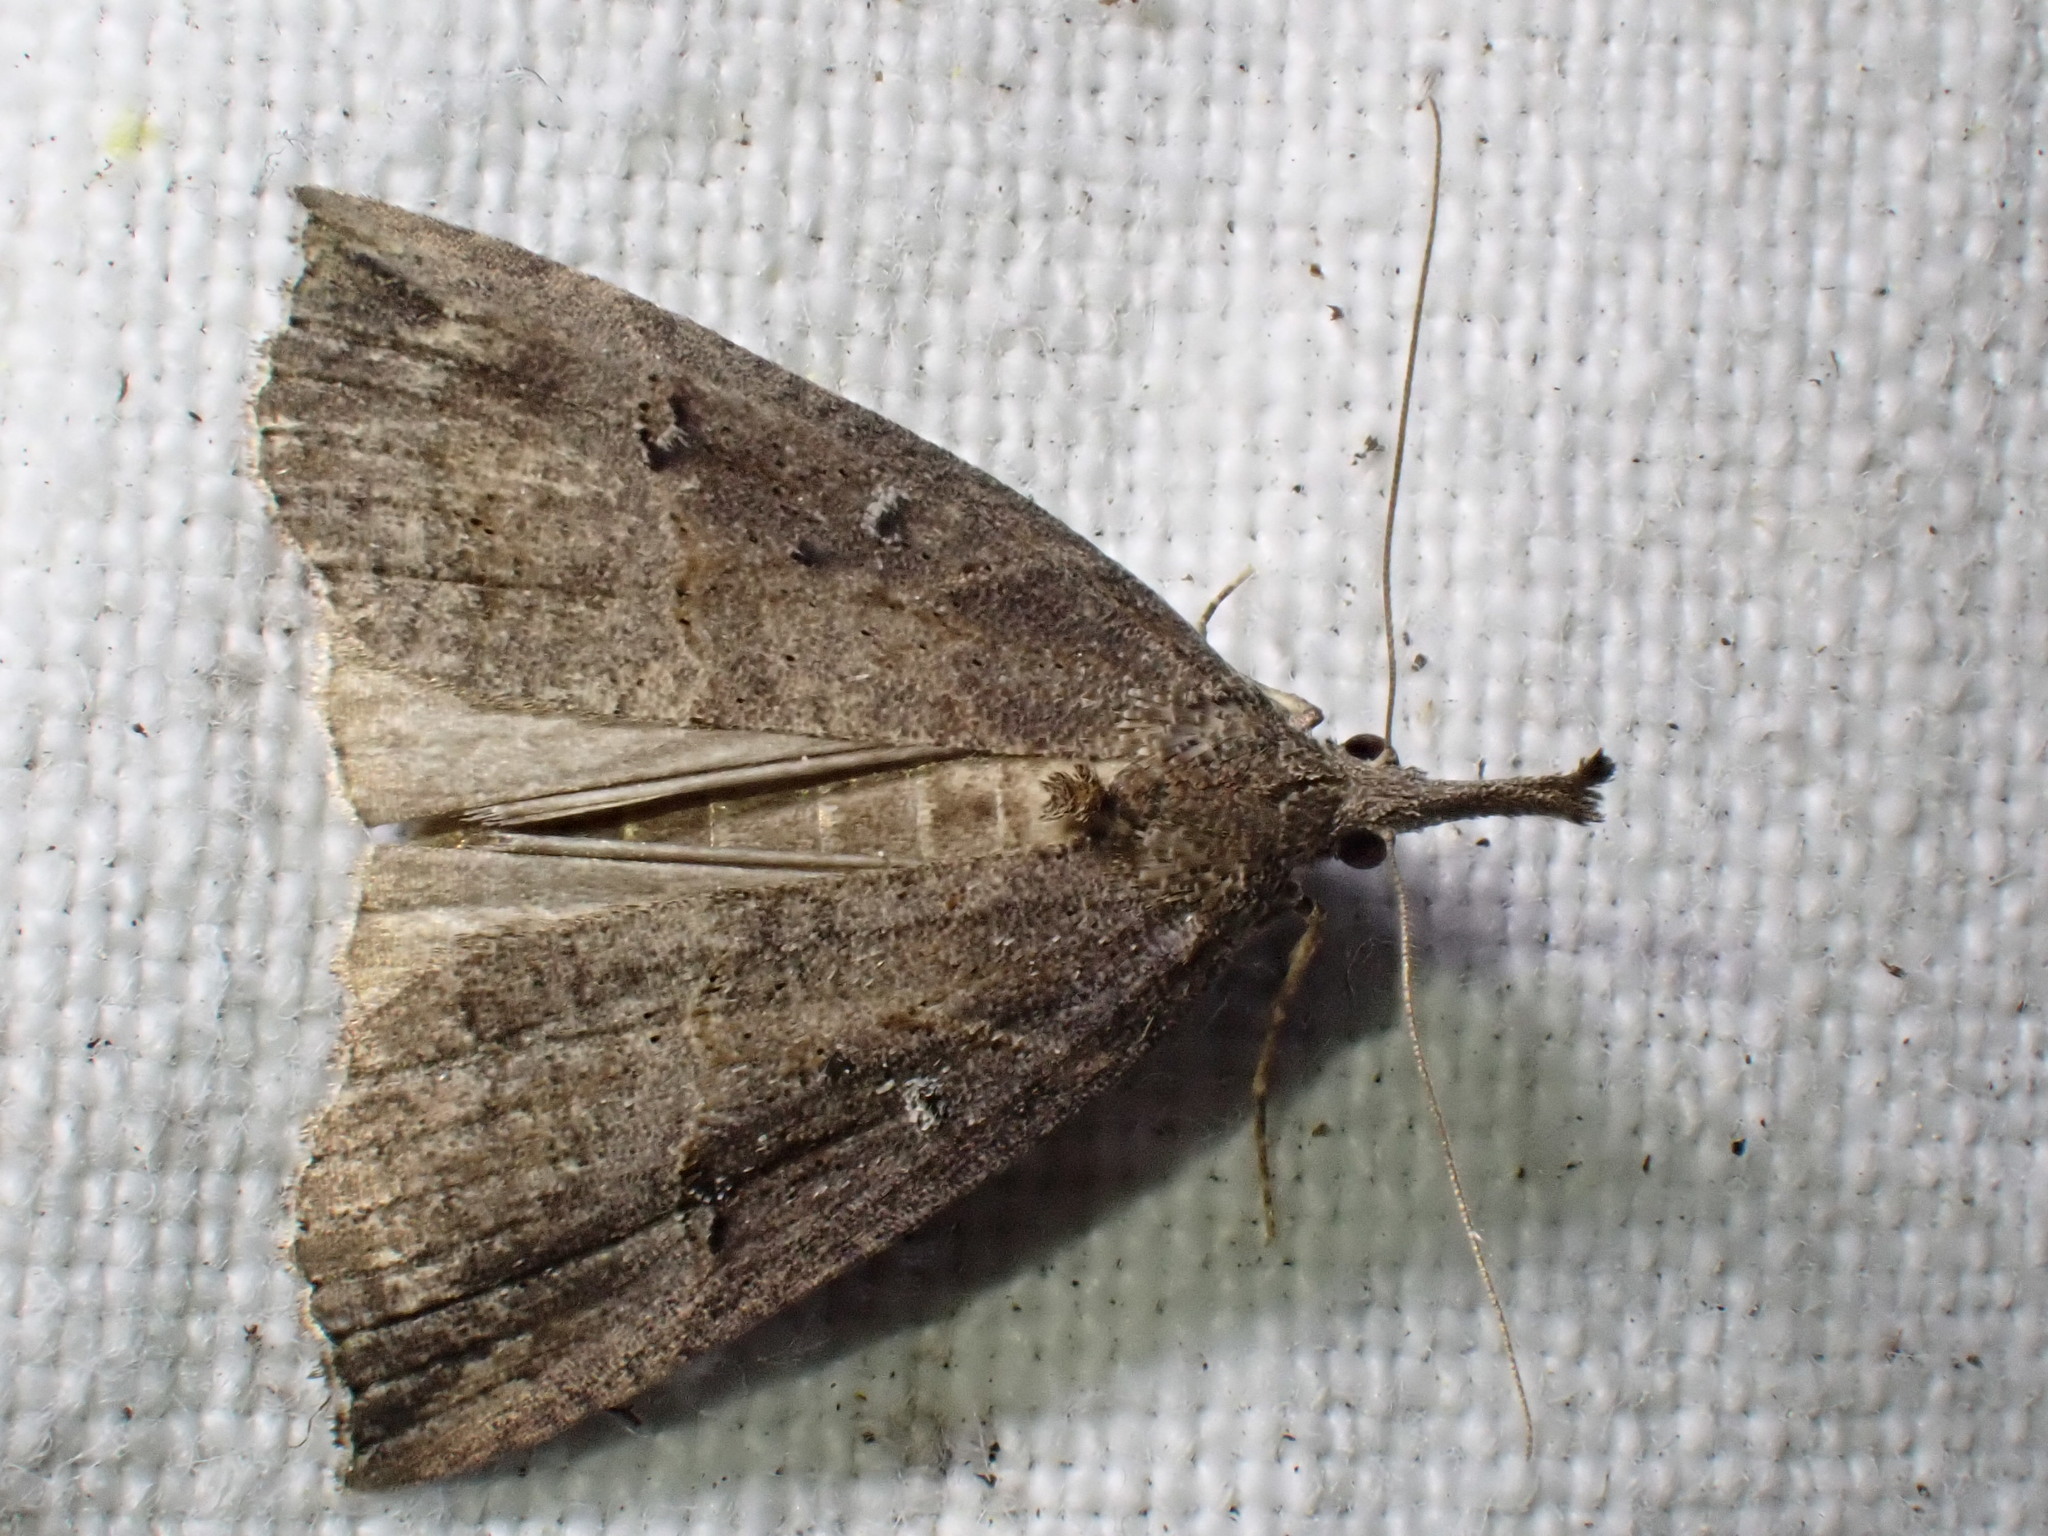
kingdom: Animalia
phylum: Arthropoda
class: Insecta
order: Lepidoptera
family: Erebidae
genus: Hypena
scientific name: Hypena rostralis
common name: Buttoned snout
